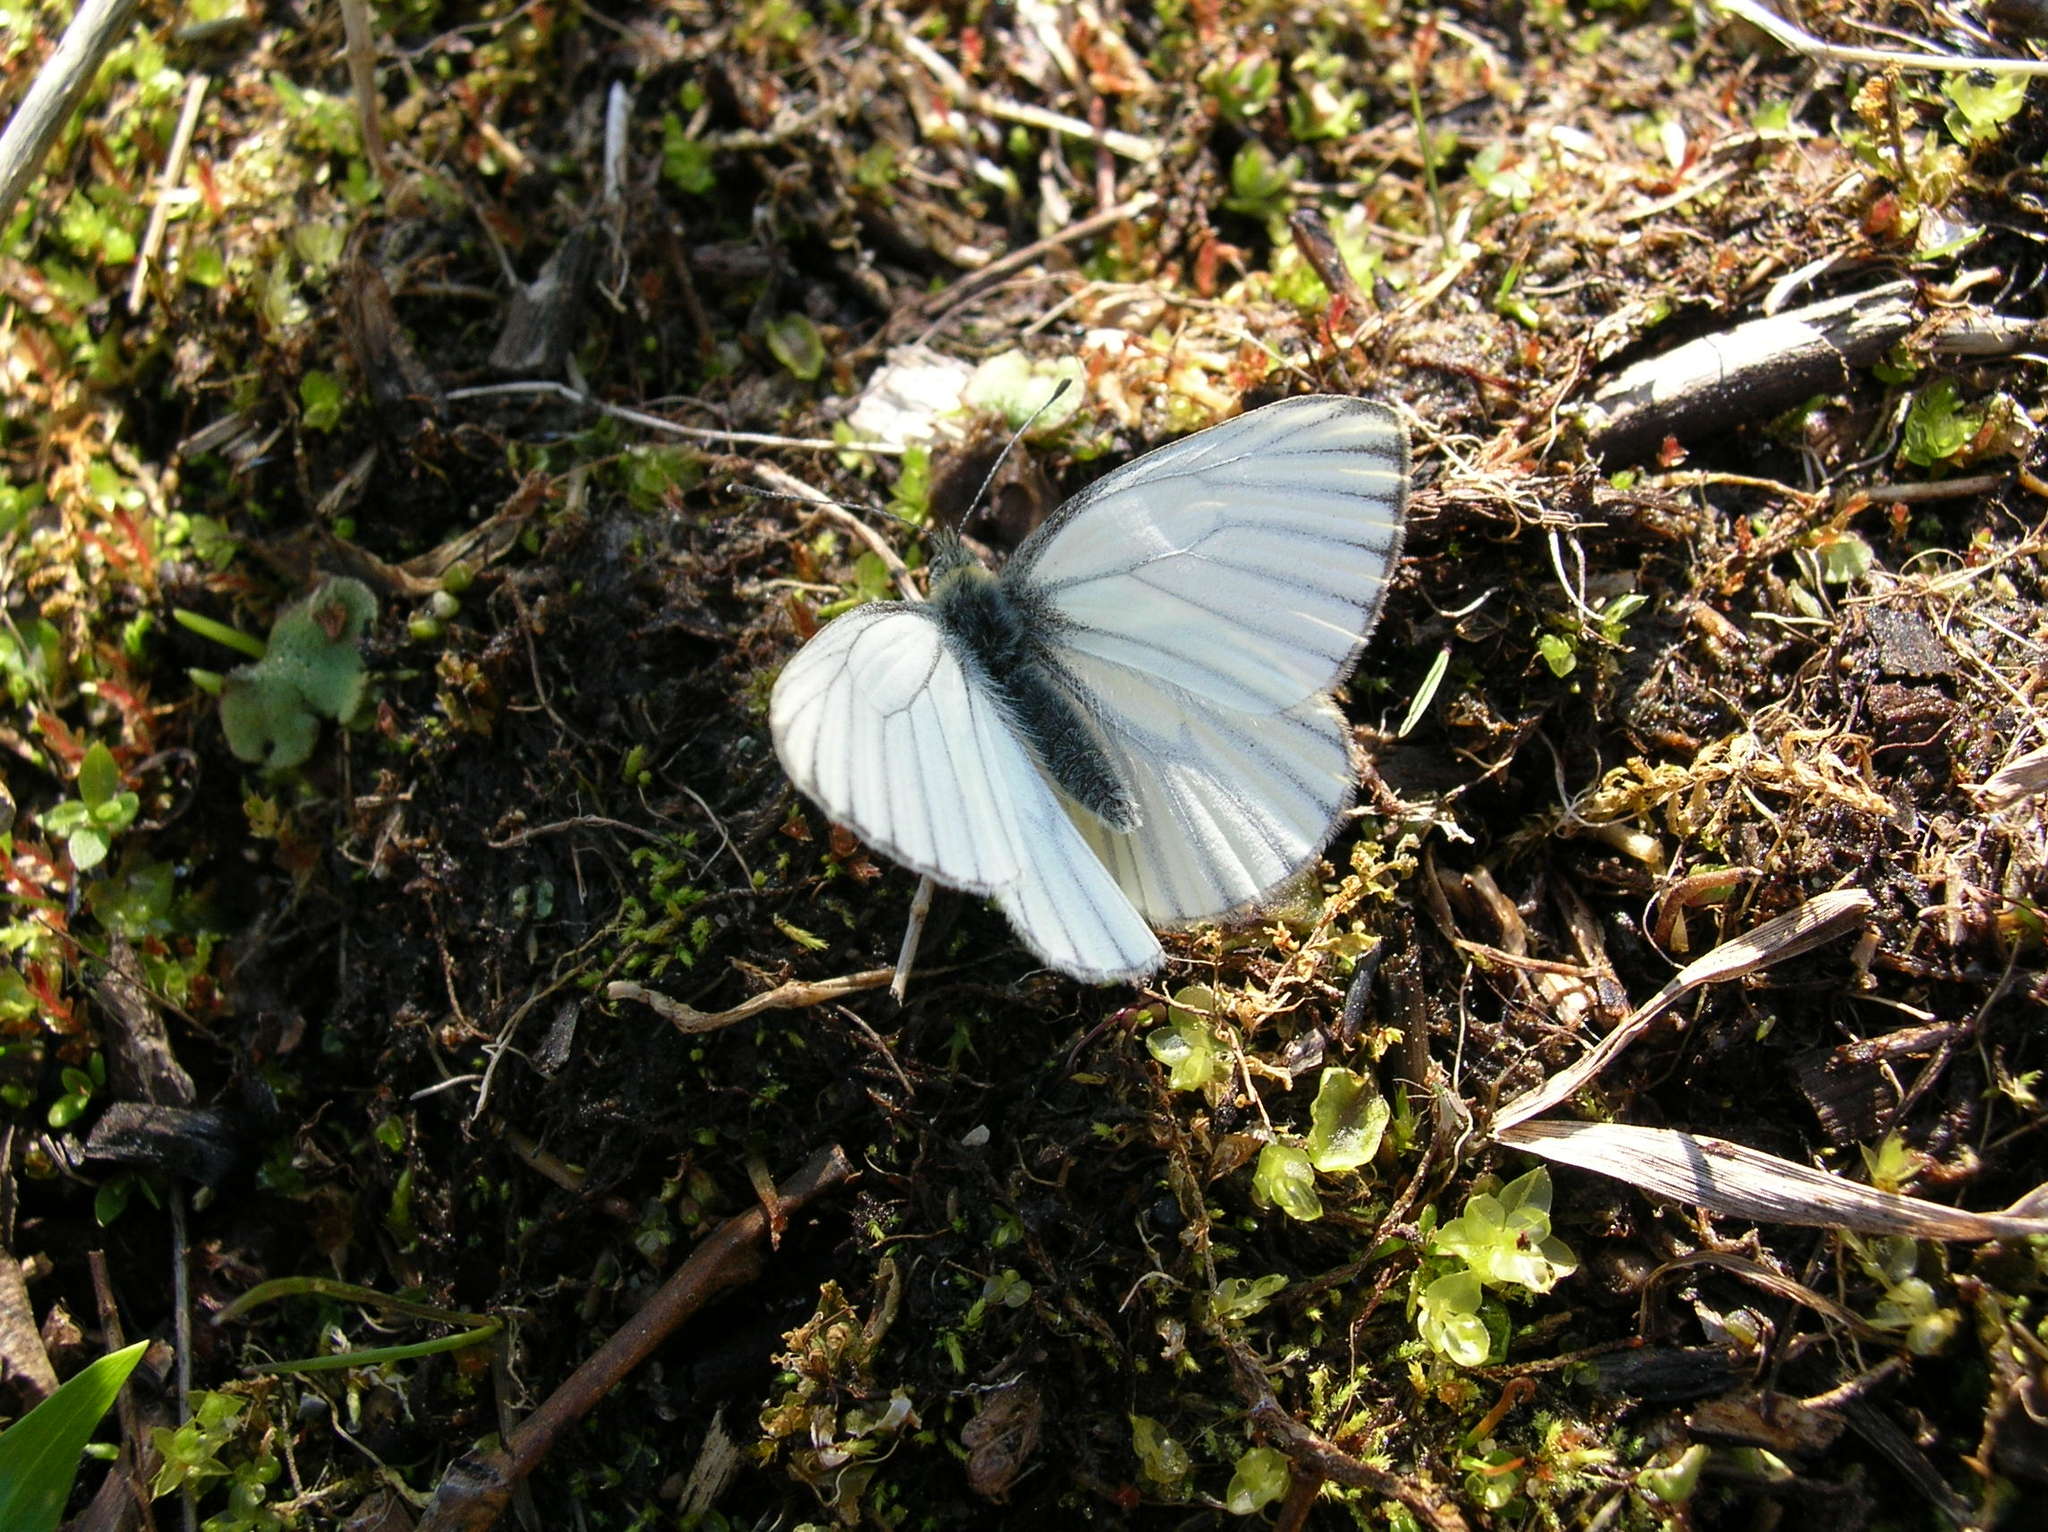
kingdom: Animalia
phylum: Arthropoda
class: Insecta
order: Lepidoptera
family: Pieridae
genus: Pieris
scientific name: Pieris angelika
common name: Arctic white
